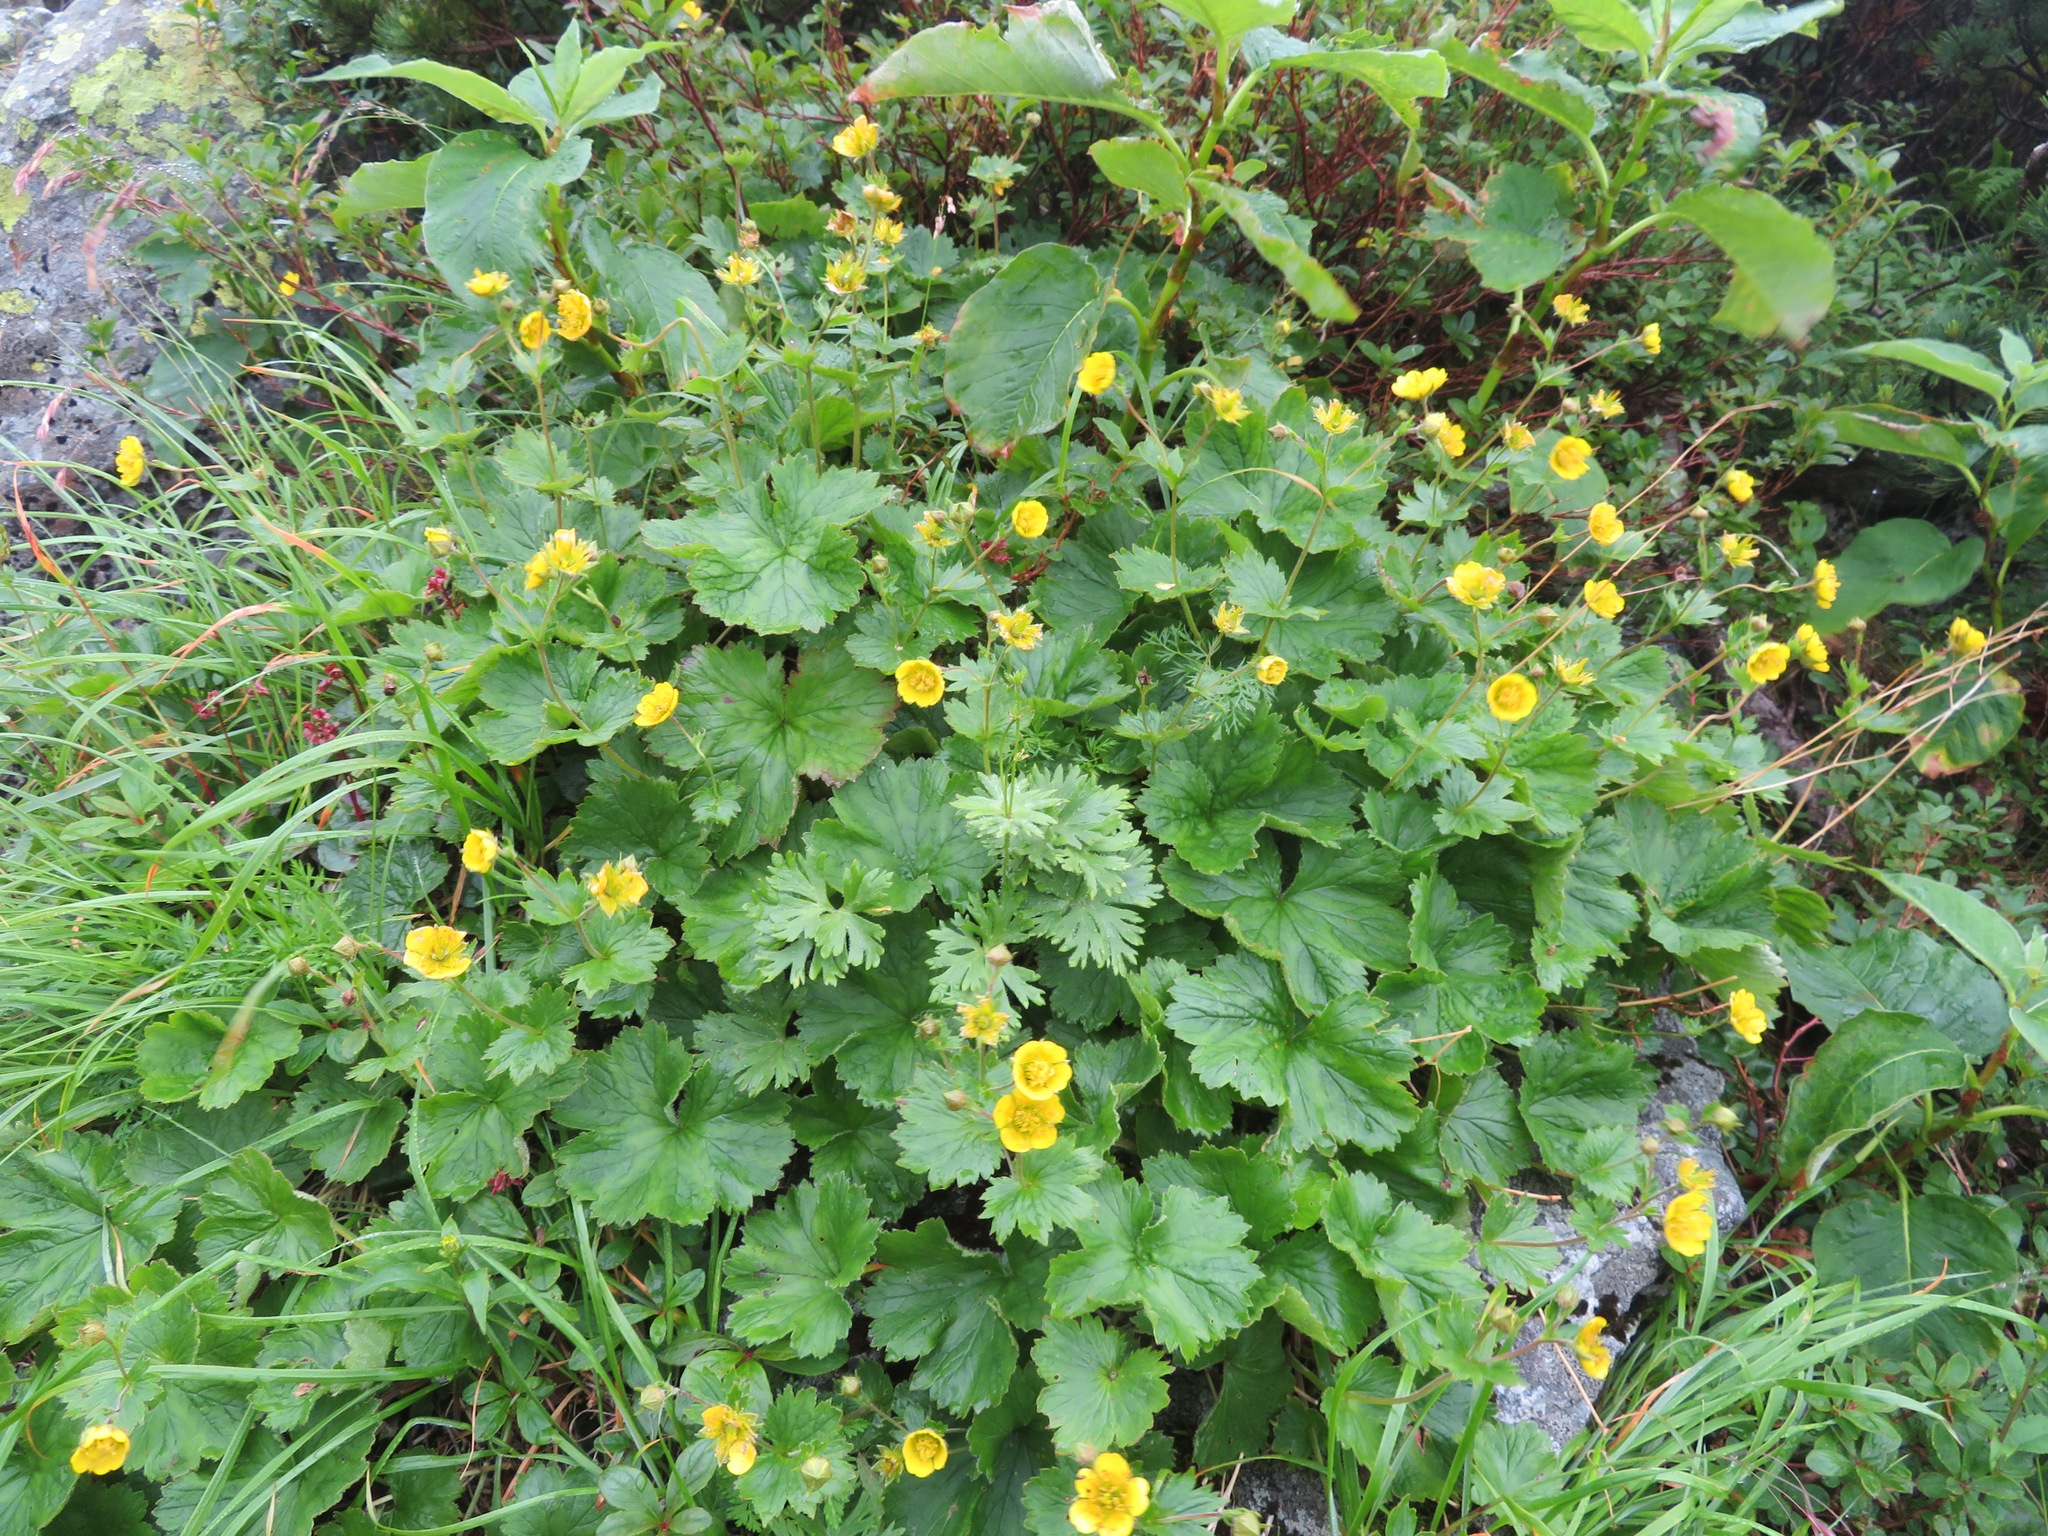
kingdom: Plantae
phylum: Tracheophyta
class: Magnoliopsida
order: Rosales
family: Rosaceae
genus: Geum
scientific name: Geum calthifolium
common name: Caltha-leaved avens
